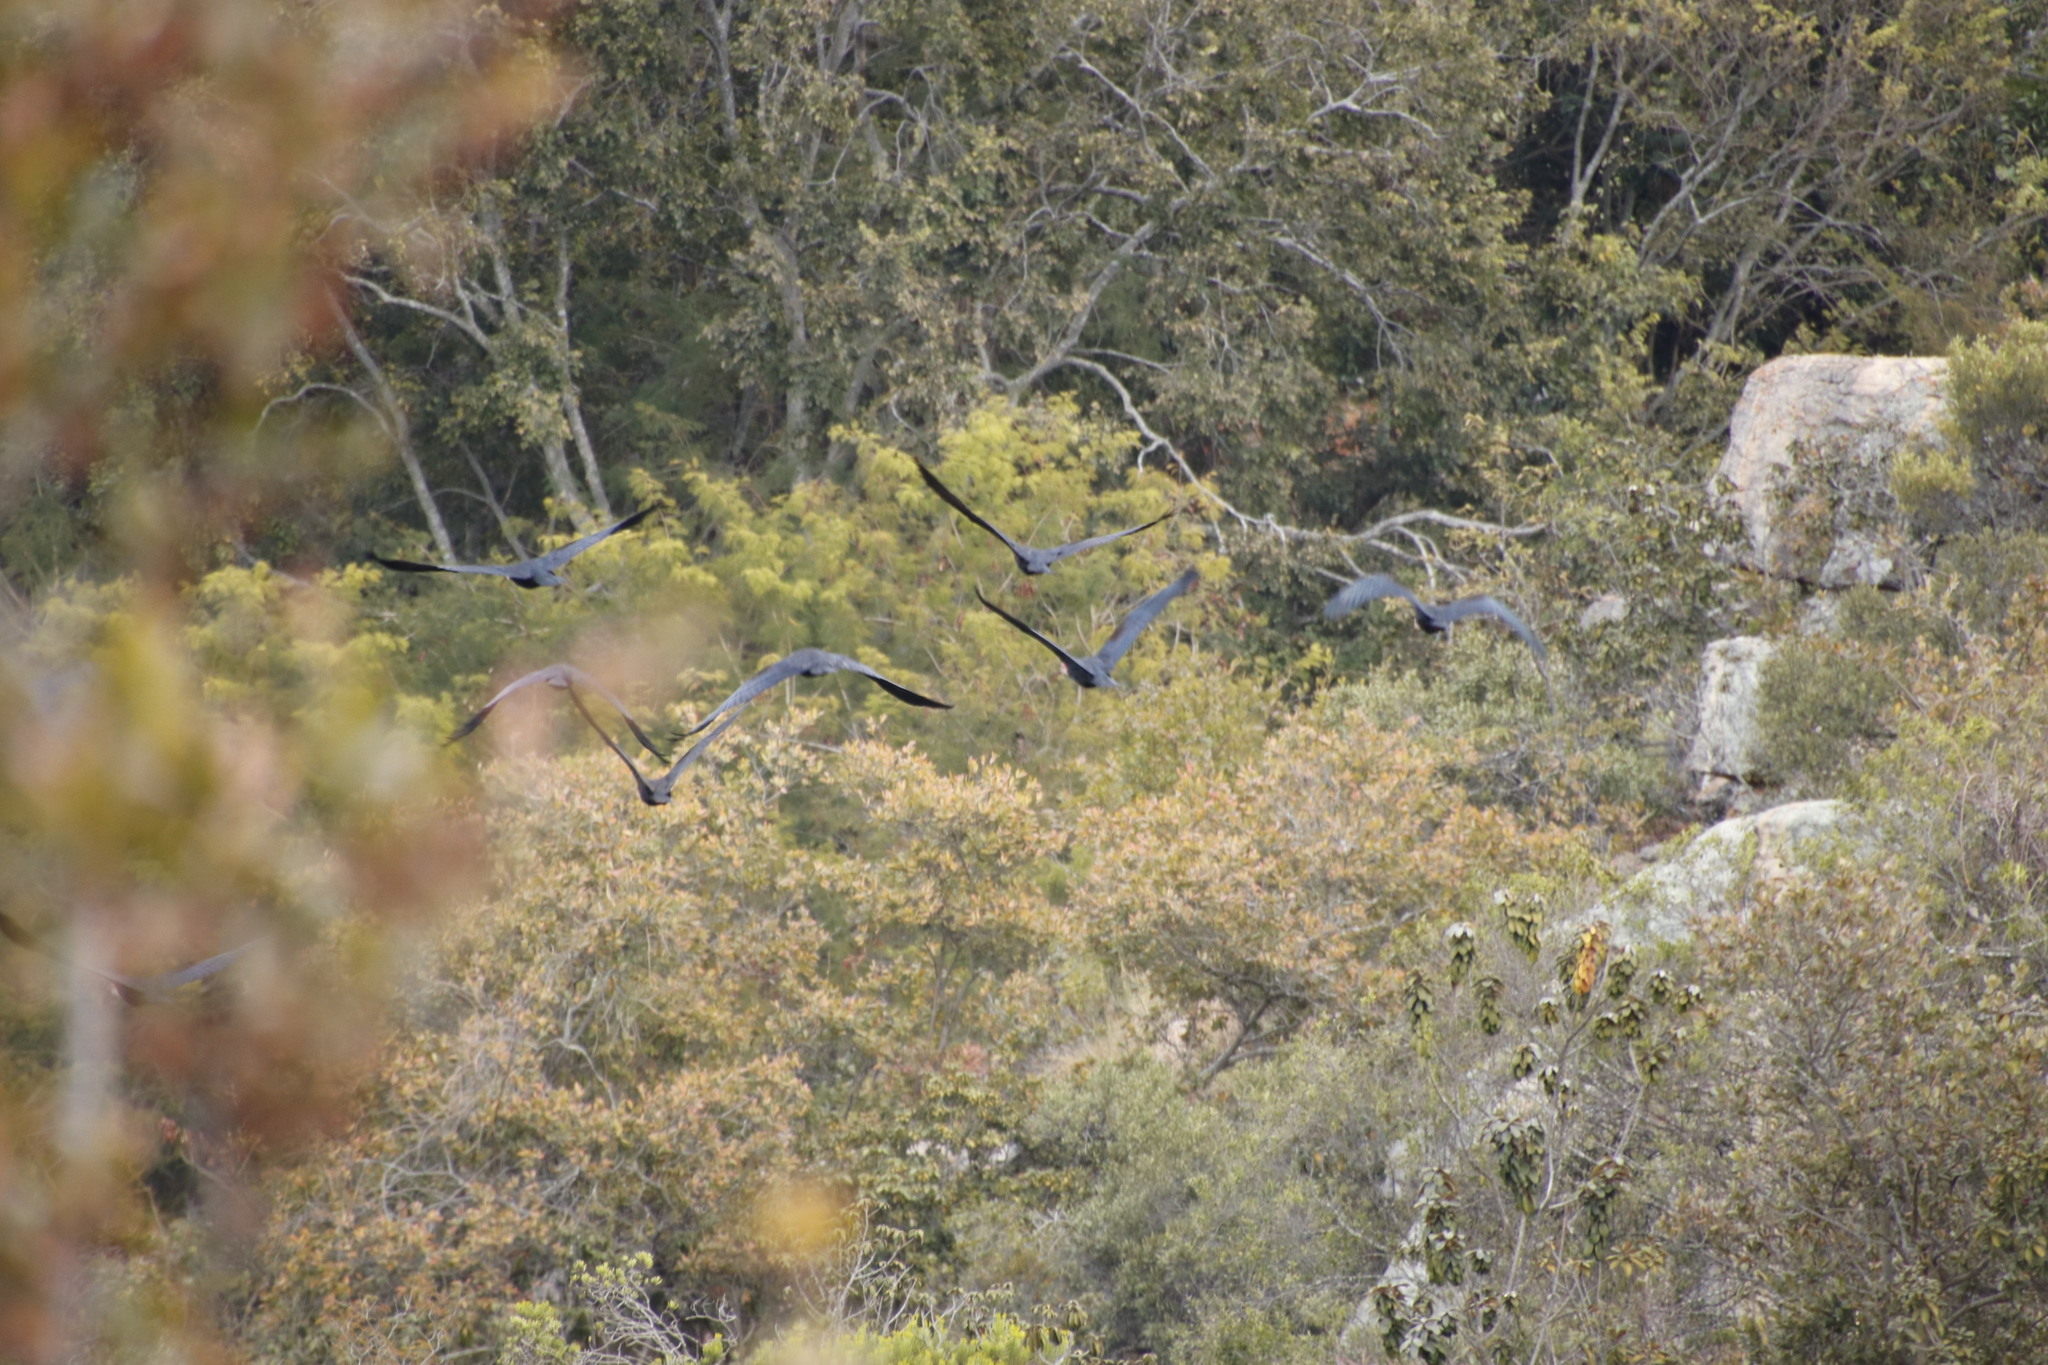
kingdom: Animalia
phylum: Chordata
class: Aves
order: Pelecaniformes
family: Threskiornithidae
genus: Geronticus
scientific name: Geronticus calvus
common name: Southern bald ibis
